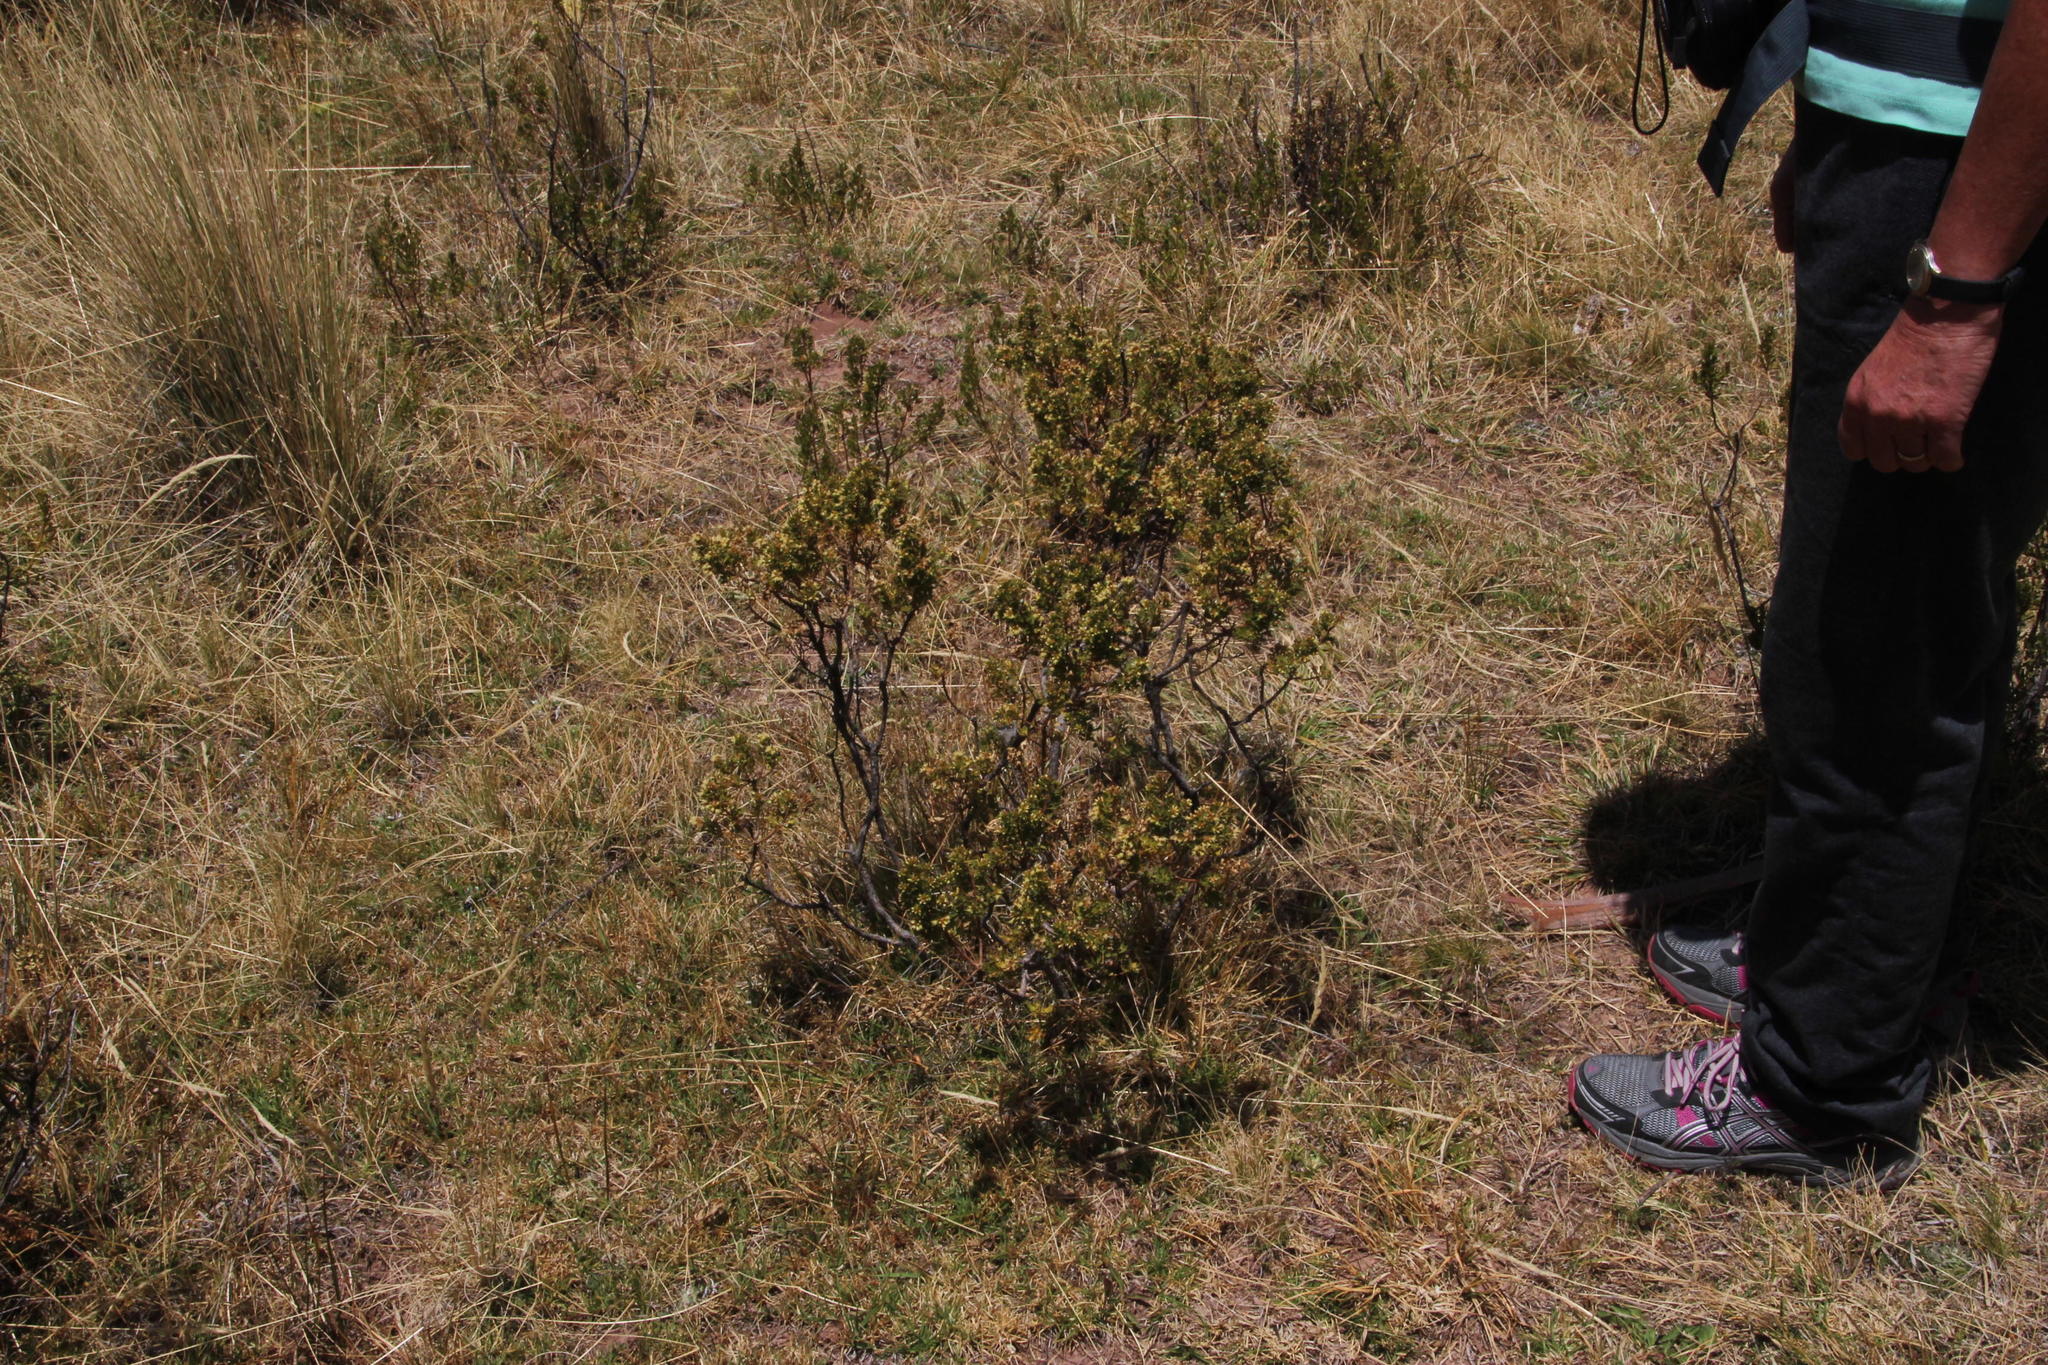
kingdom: Plantae
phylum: Tracheophyta
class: Magnoliopsida
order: Asterales
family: Asteraceae
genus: Baccharis
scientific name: Baccharis tola
